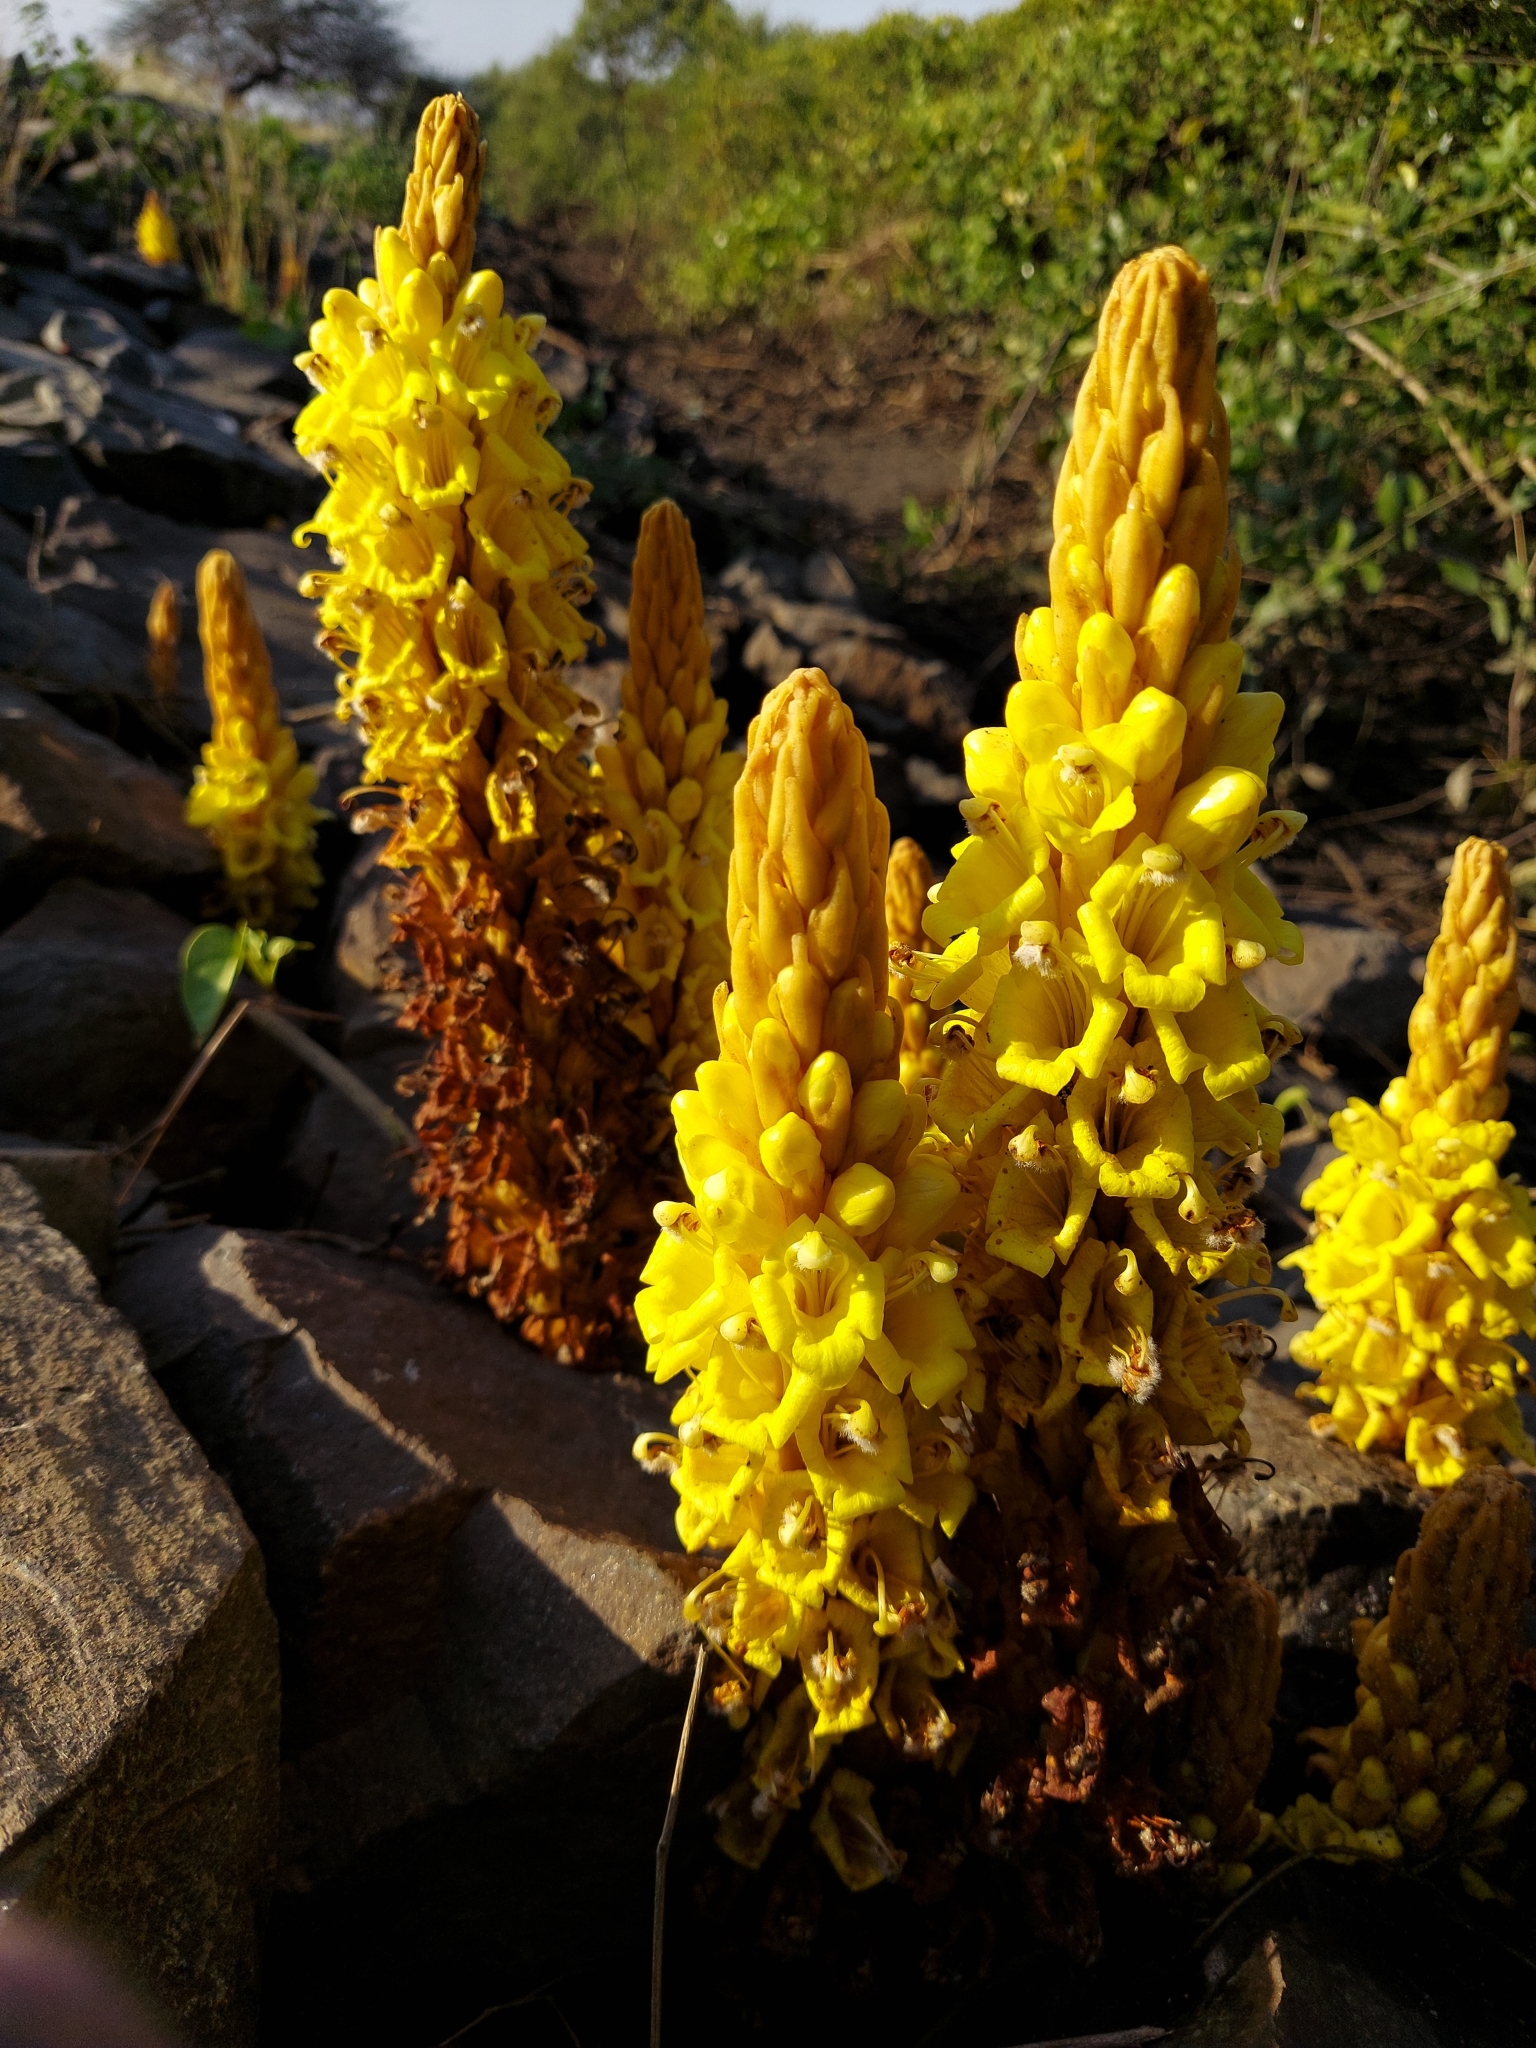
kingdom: Plantae
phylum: Tracheophyta
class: Magnoliopsida
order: Lamiales
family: Orobanchaceae
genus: Cistanche
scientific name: Cistanche tubulosa
